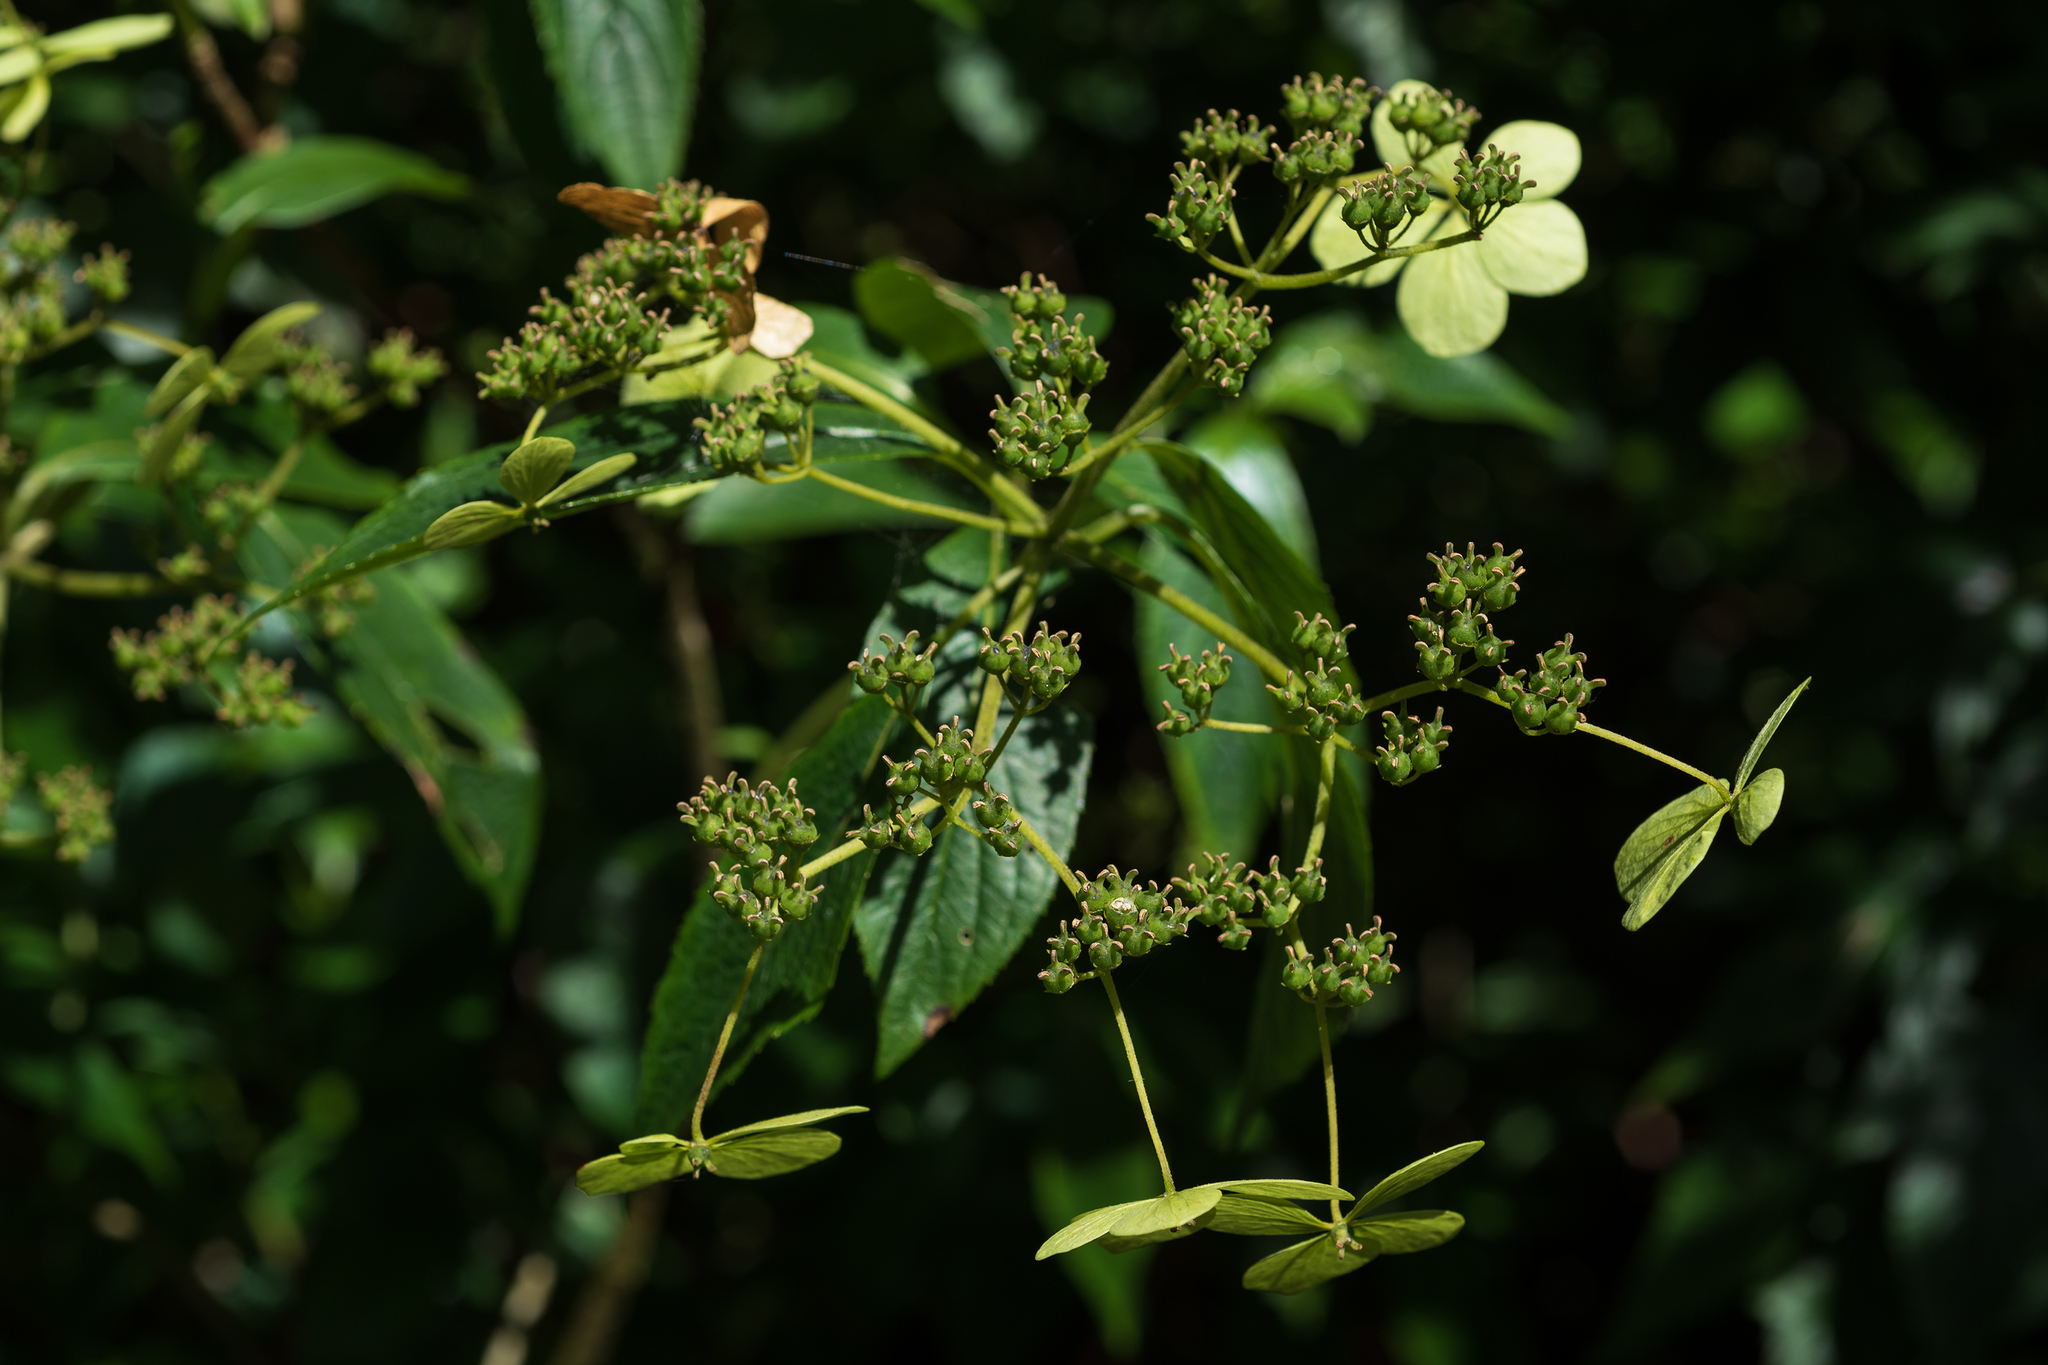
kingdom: Plantae
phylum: Tracheophyta
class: Magnoliopsida
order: Cornales
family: Hydrangeaceae
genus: Hydrangea
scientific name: Hydrangea chinensis
